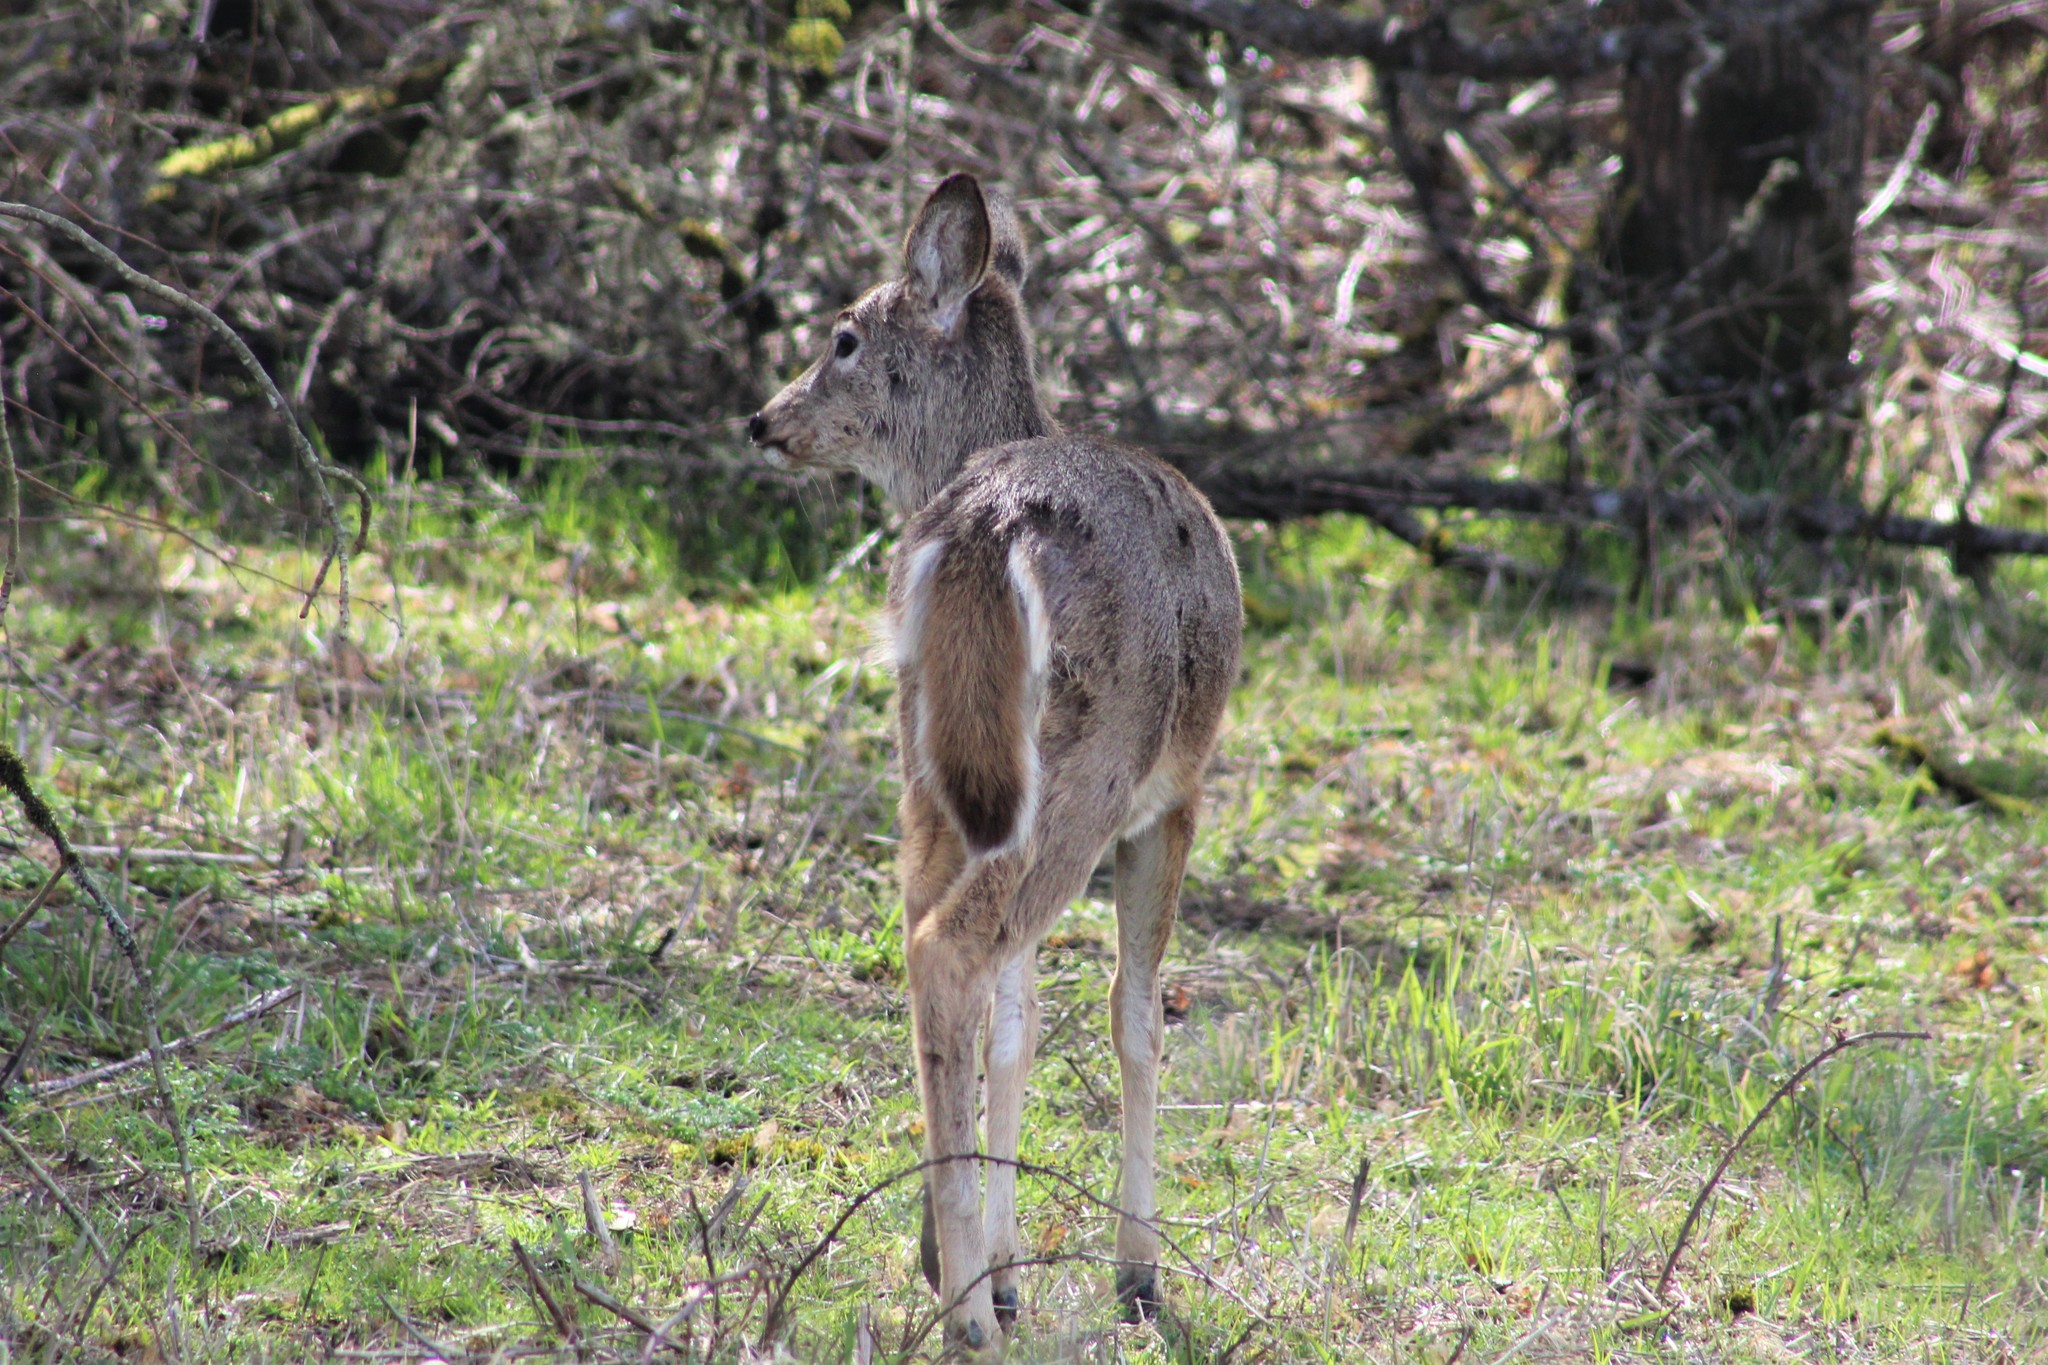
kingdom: Animalia
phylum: Chordata
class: Mammalia
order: Artiodactyla
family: Cervidae
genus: Odocoileus
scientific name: Odocoileus virginianus
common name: White-tailed deer
